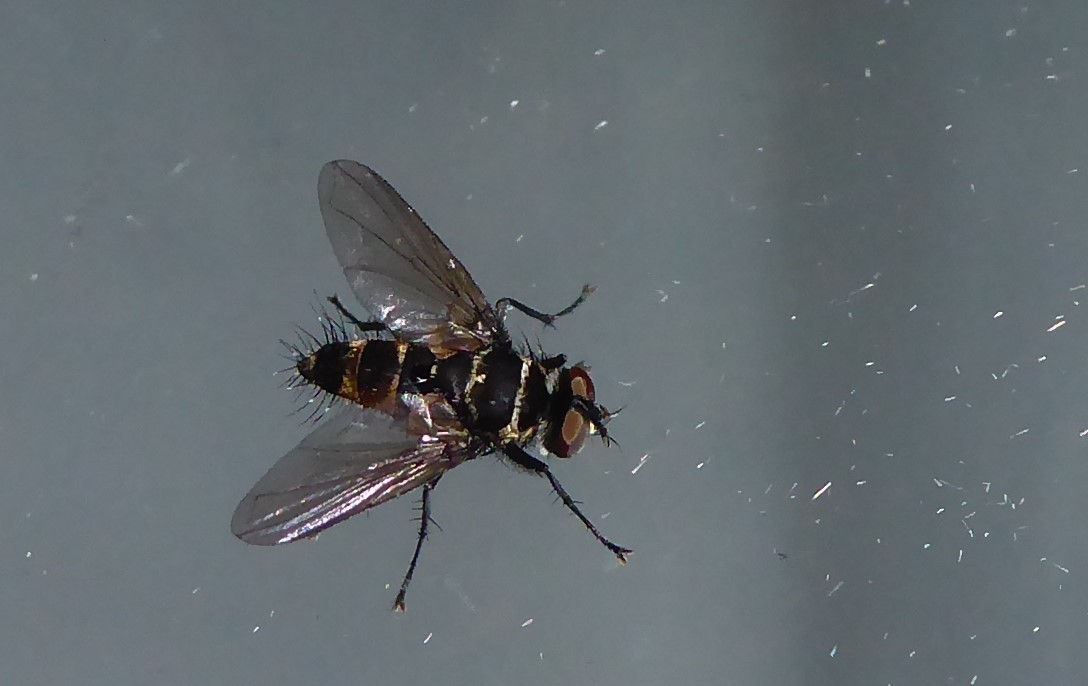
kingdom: Animalia
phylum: Arthropoda
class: Insecta
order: Diptera
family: Tachinidae
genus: Trigonospila
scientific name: Trigonospila brevifacies
